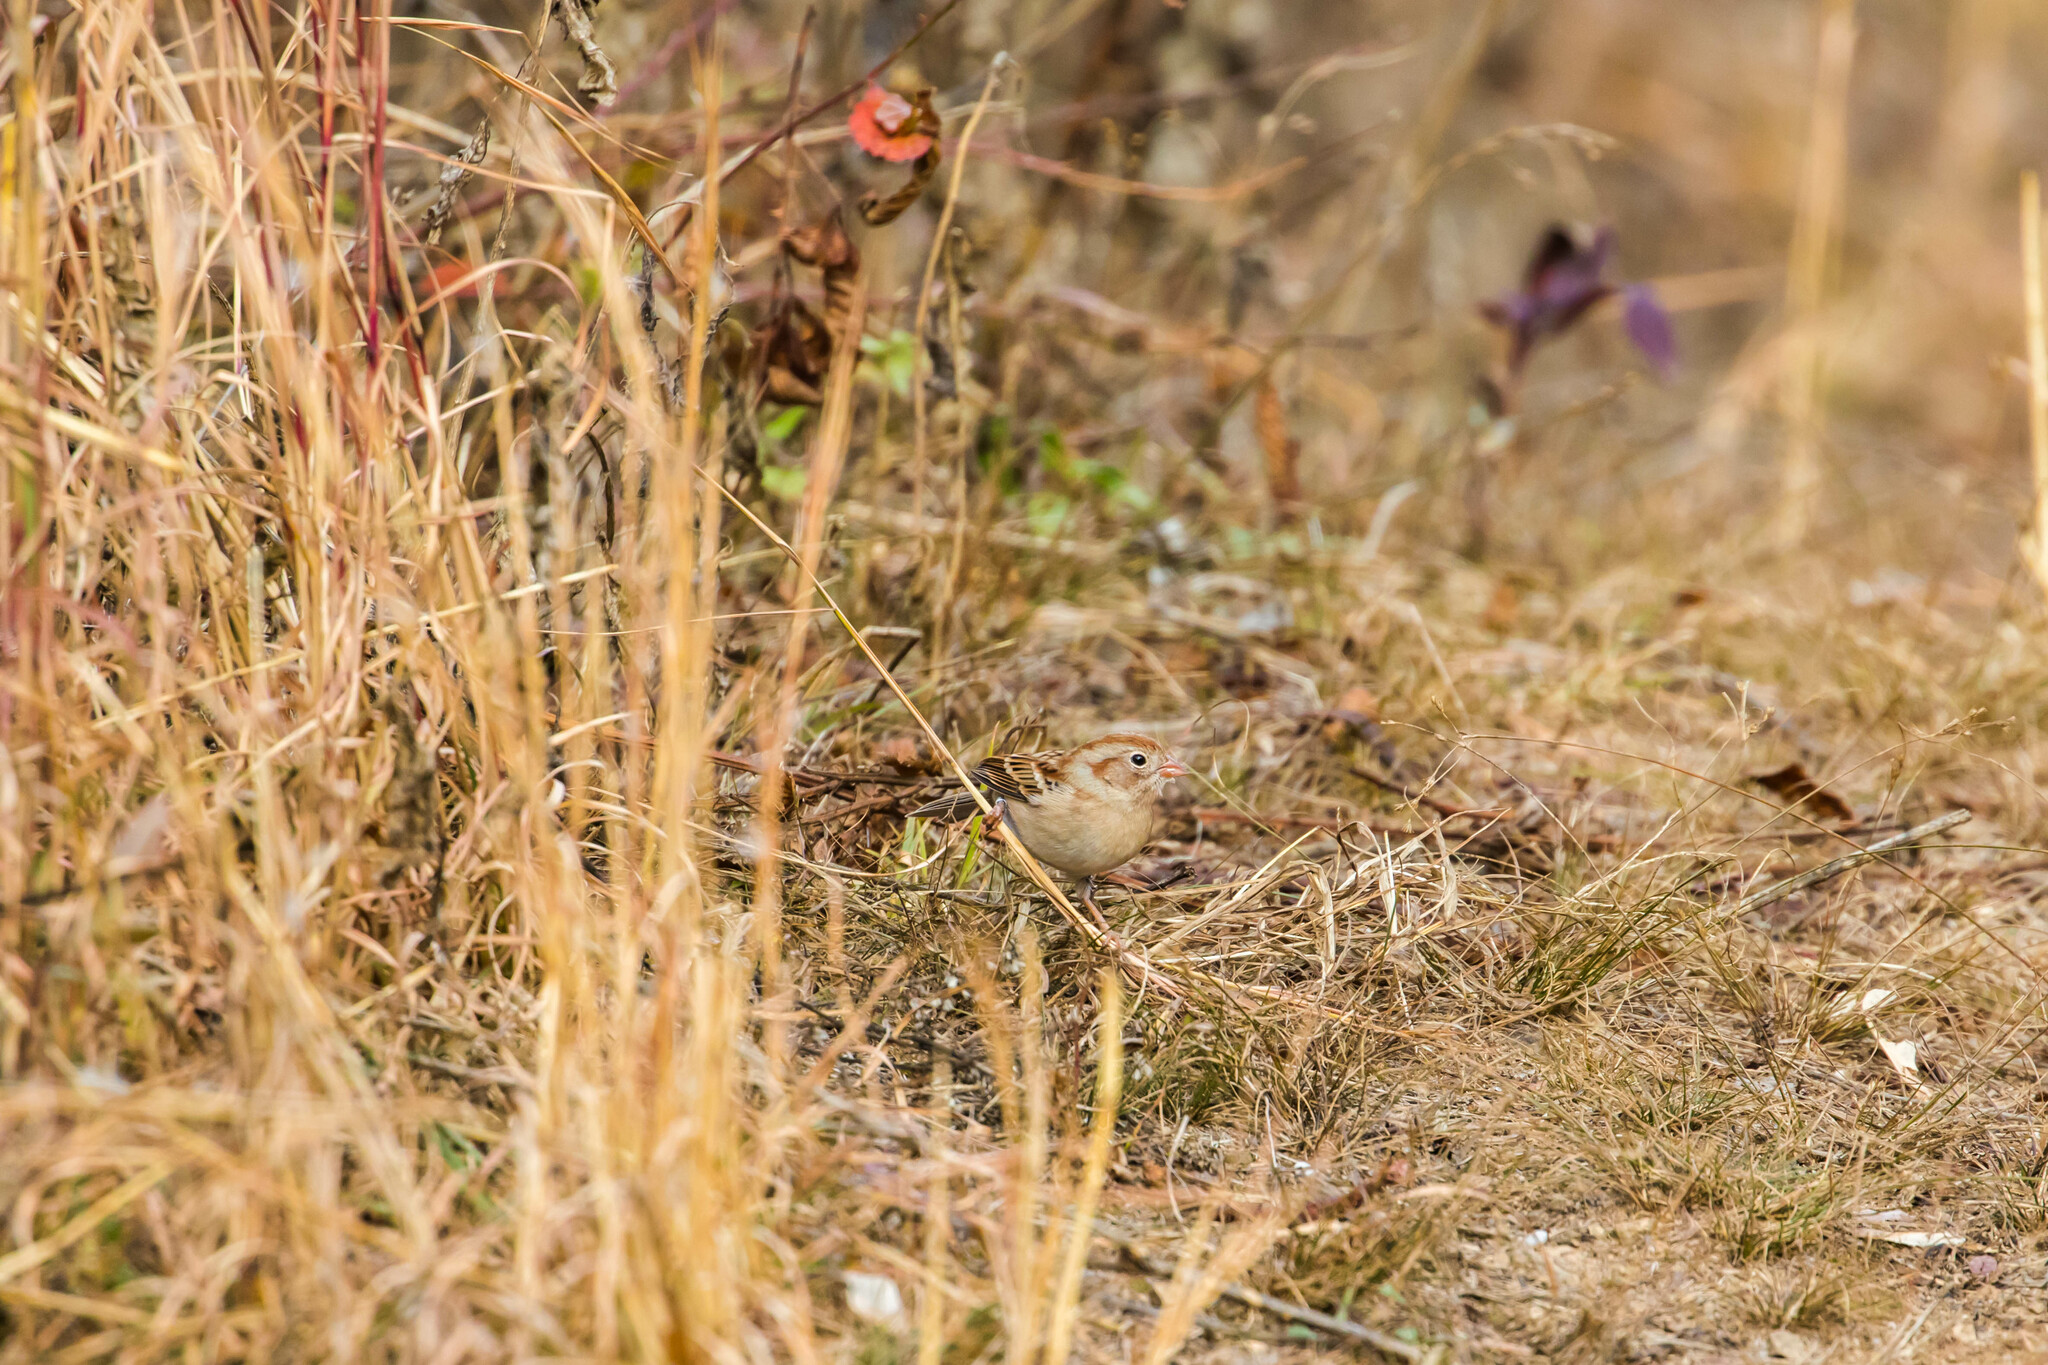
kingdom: Animalia
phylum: Chordata
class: Aves
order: Passeriformes
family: Passerellidae
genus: Spizella
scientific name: Spizella pusilla
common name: Field sparrow
